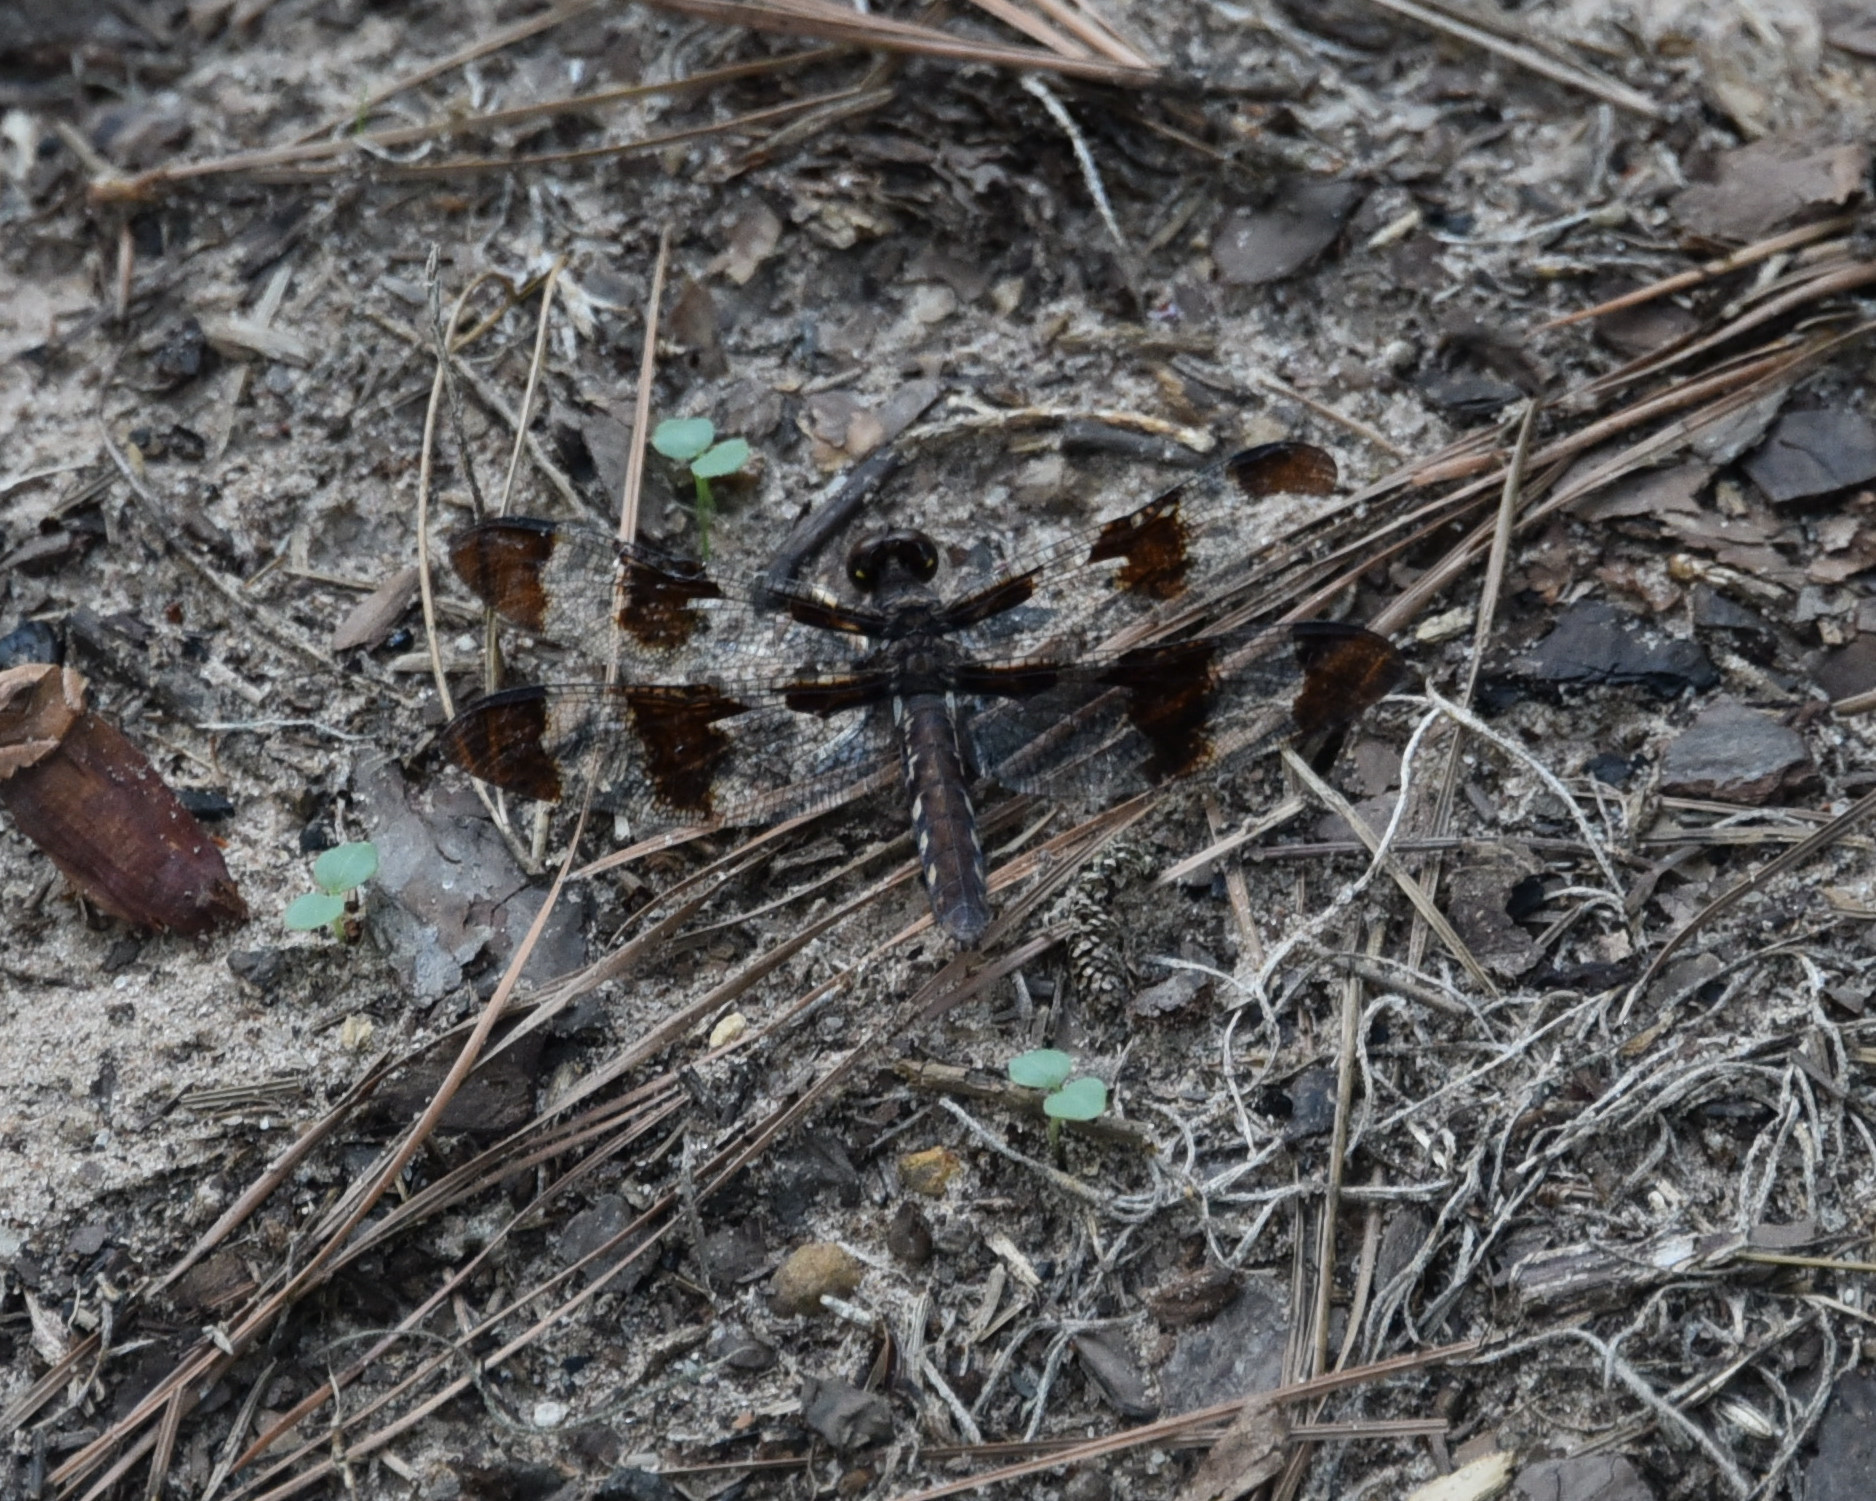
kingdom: Animalia
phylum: Arthropoda
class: Insecta
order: Odonata
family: Libellulidae
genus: Plathemis
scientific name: Plathemis lydia
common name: Common whitetail
